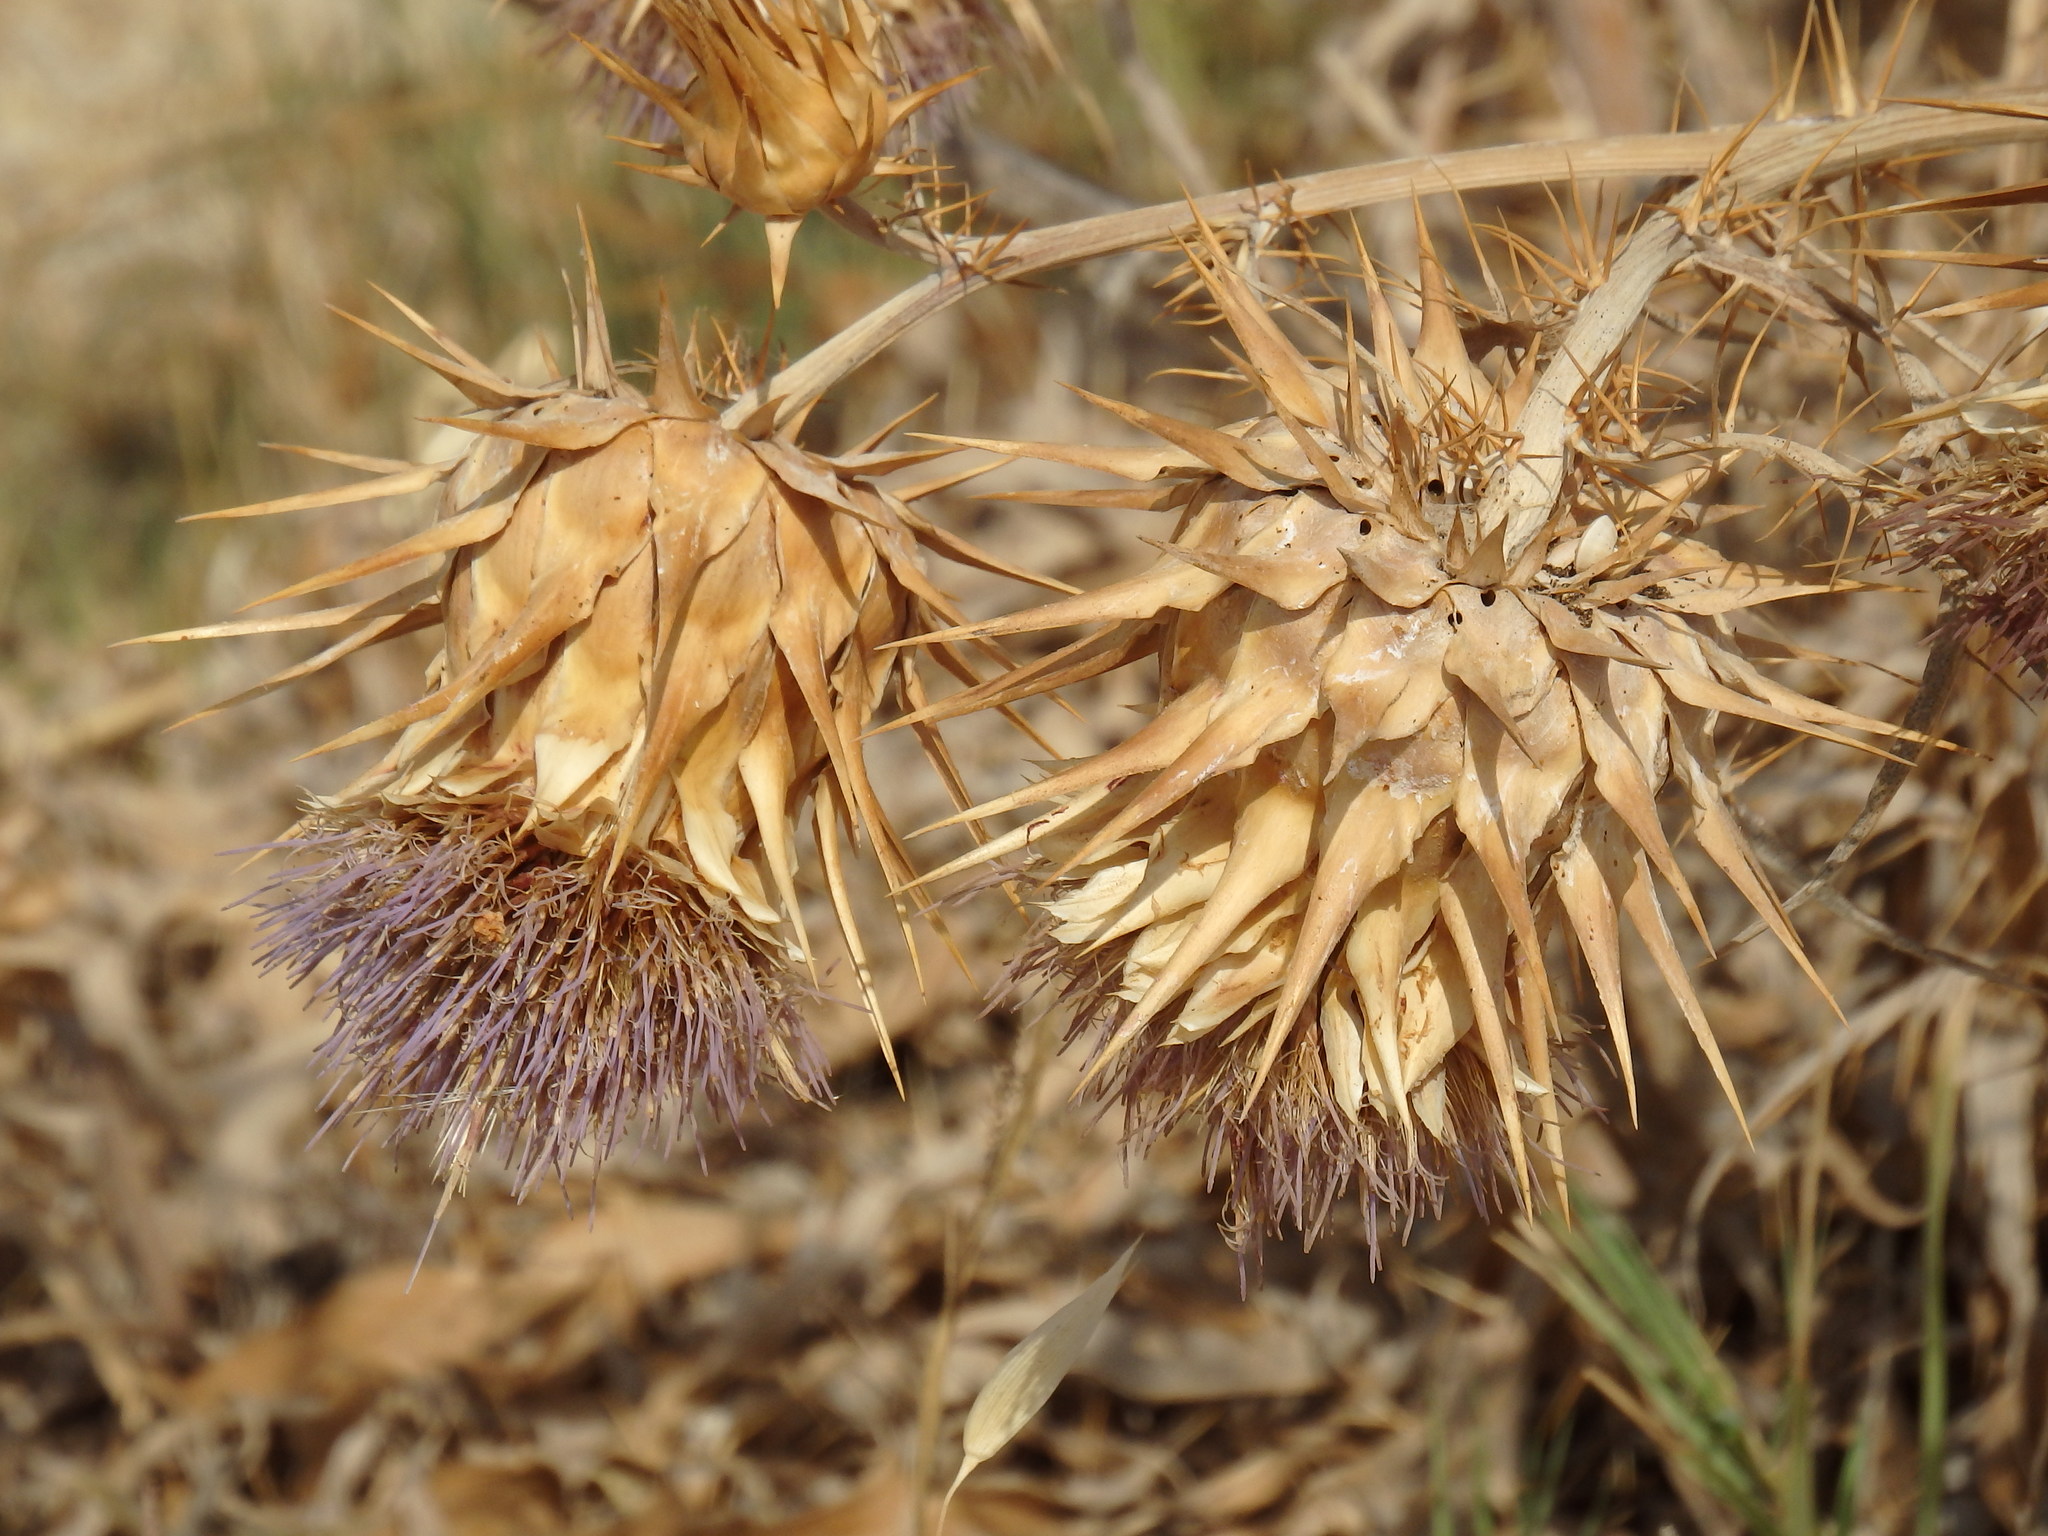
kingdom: Plantae
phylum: Tracheophyta
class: Magnoliopsida
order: Asterales
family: Asteraceae
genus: Cynara
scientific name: Cynara cardunculus
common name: Globe artichoke
